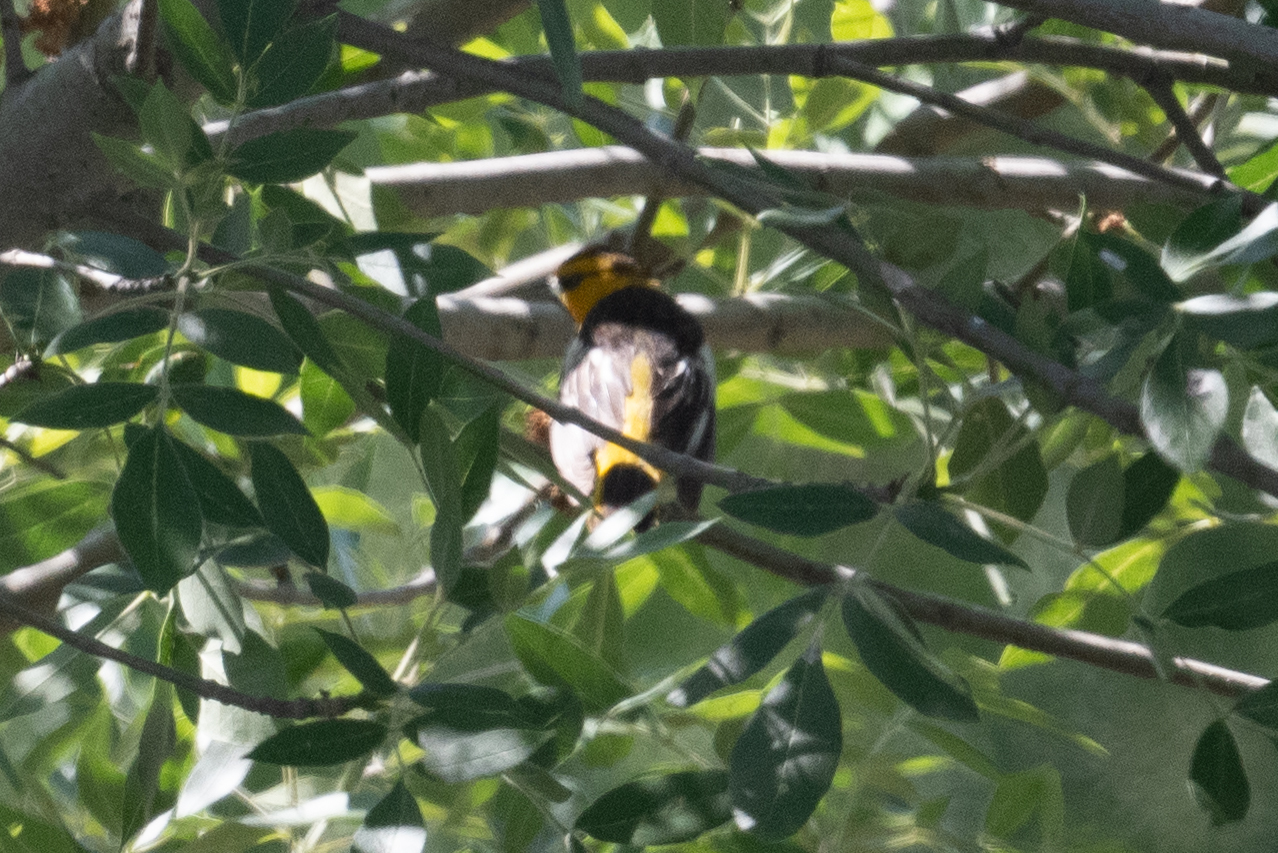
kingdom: Animalia
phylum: Chordata
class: Aves
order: Passeriformes
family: Icteridae
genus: Icterus
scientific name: Icterus bullockii
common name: Bullock's oriole
